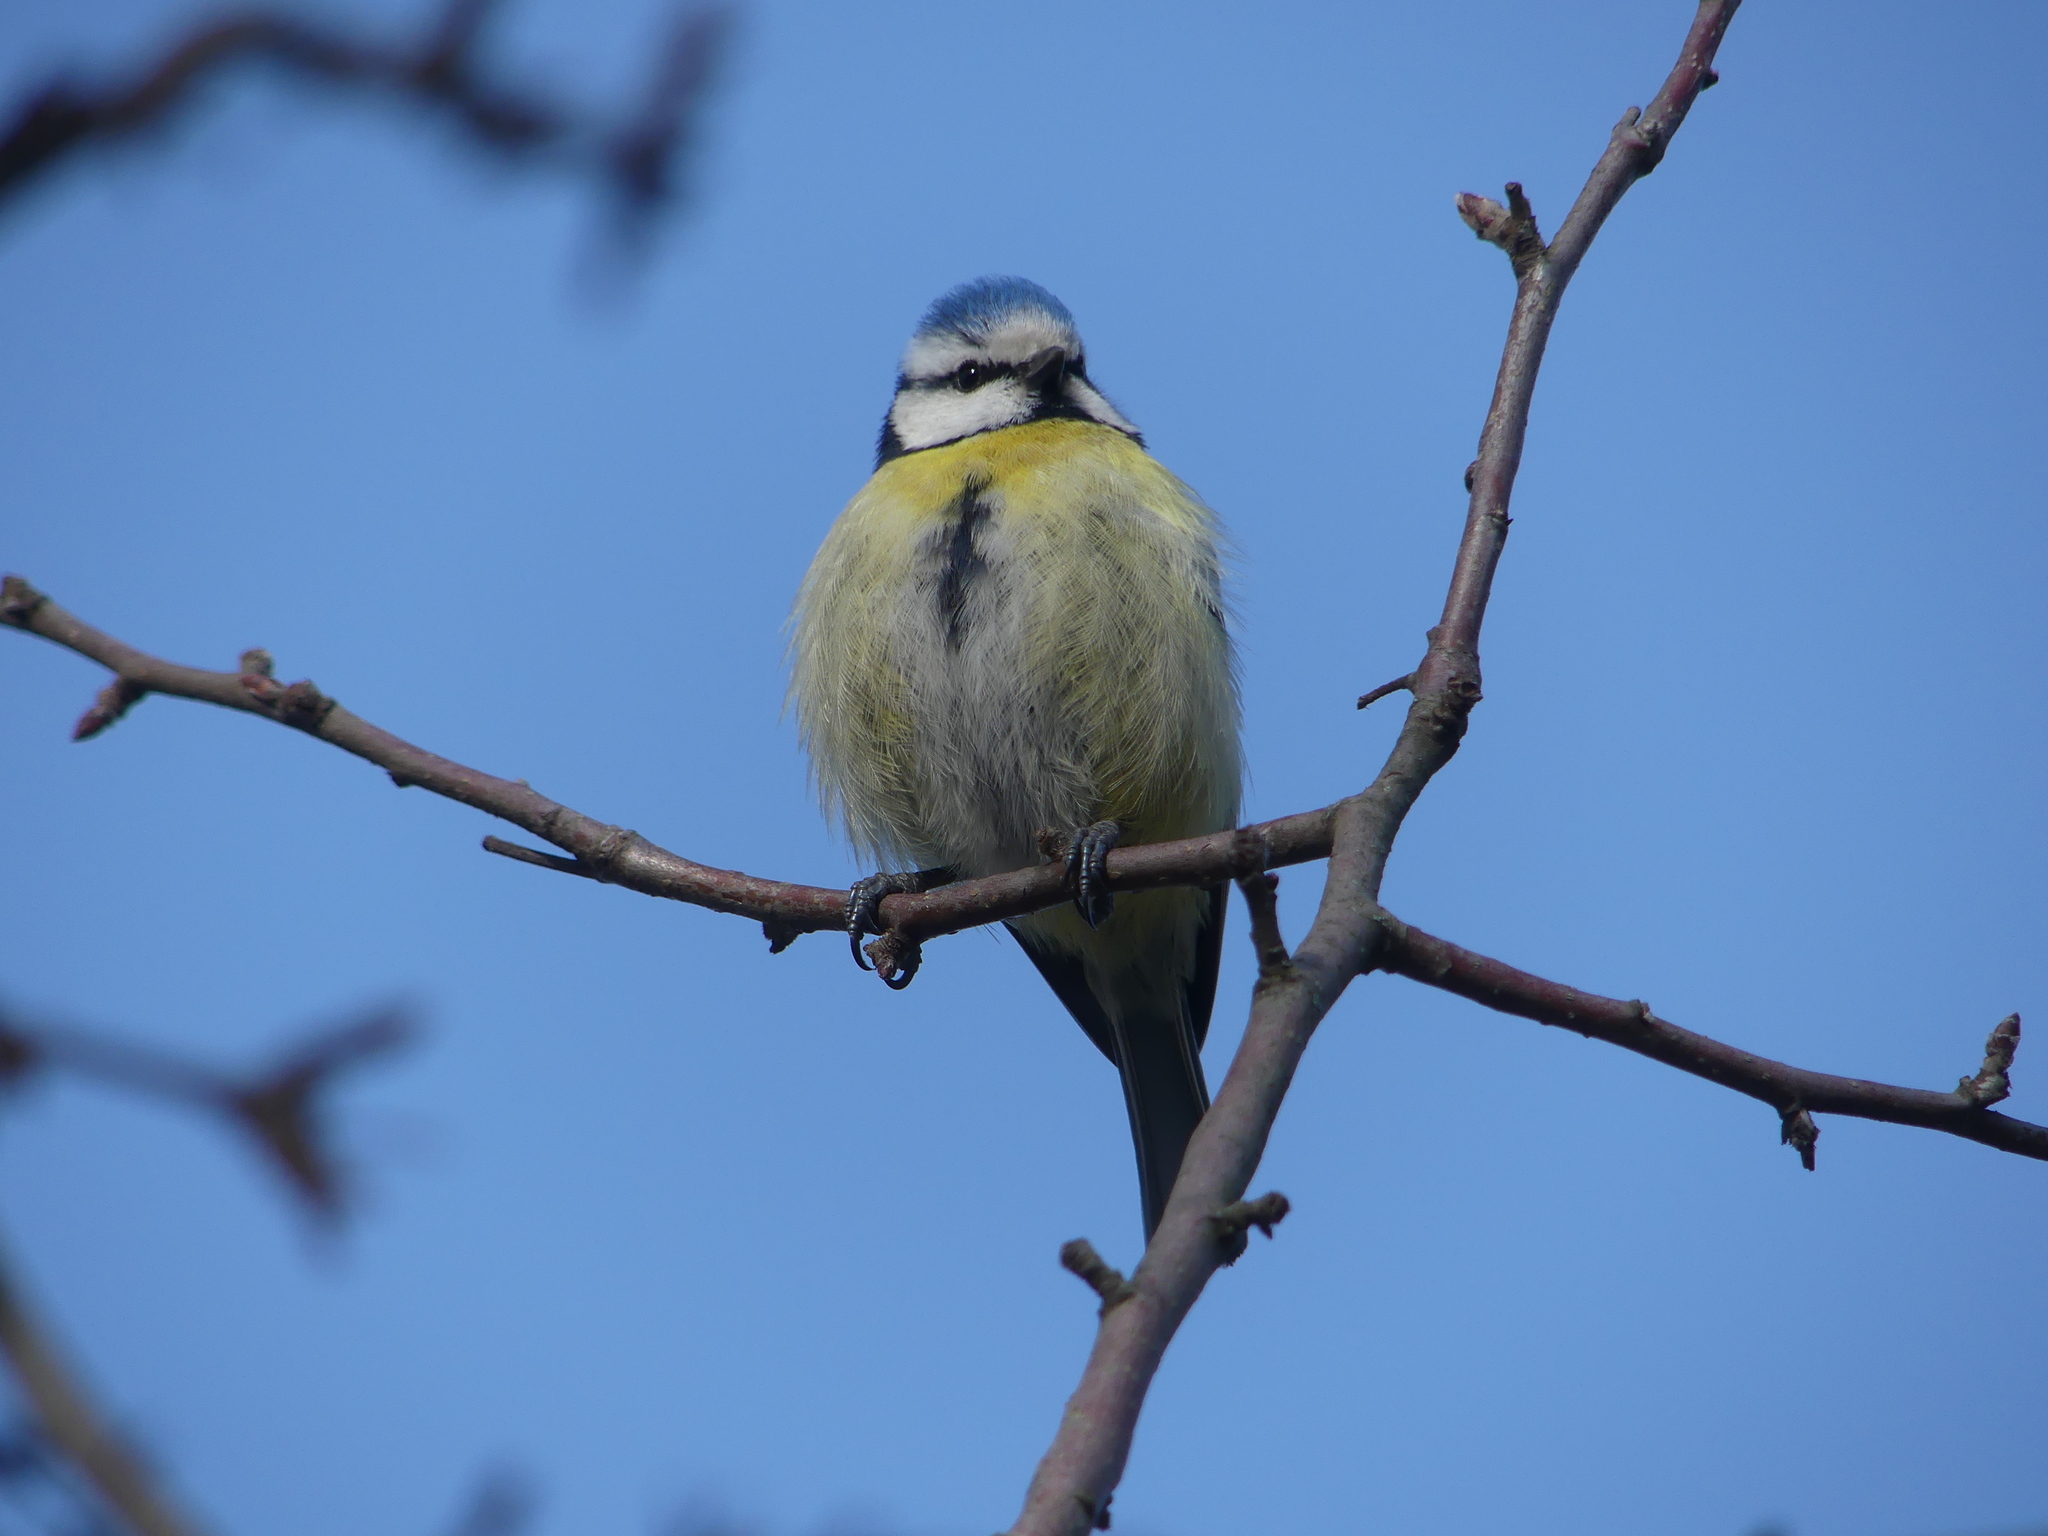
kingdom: Animalia
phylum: Chordata
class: Aves
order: Passeriformes
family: Paridae
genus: Cyanistes
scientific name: Cyanistes caeruleus
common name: Eurasian blue tit
